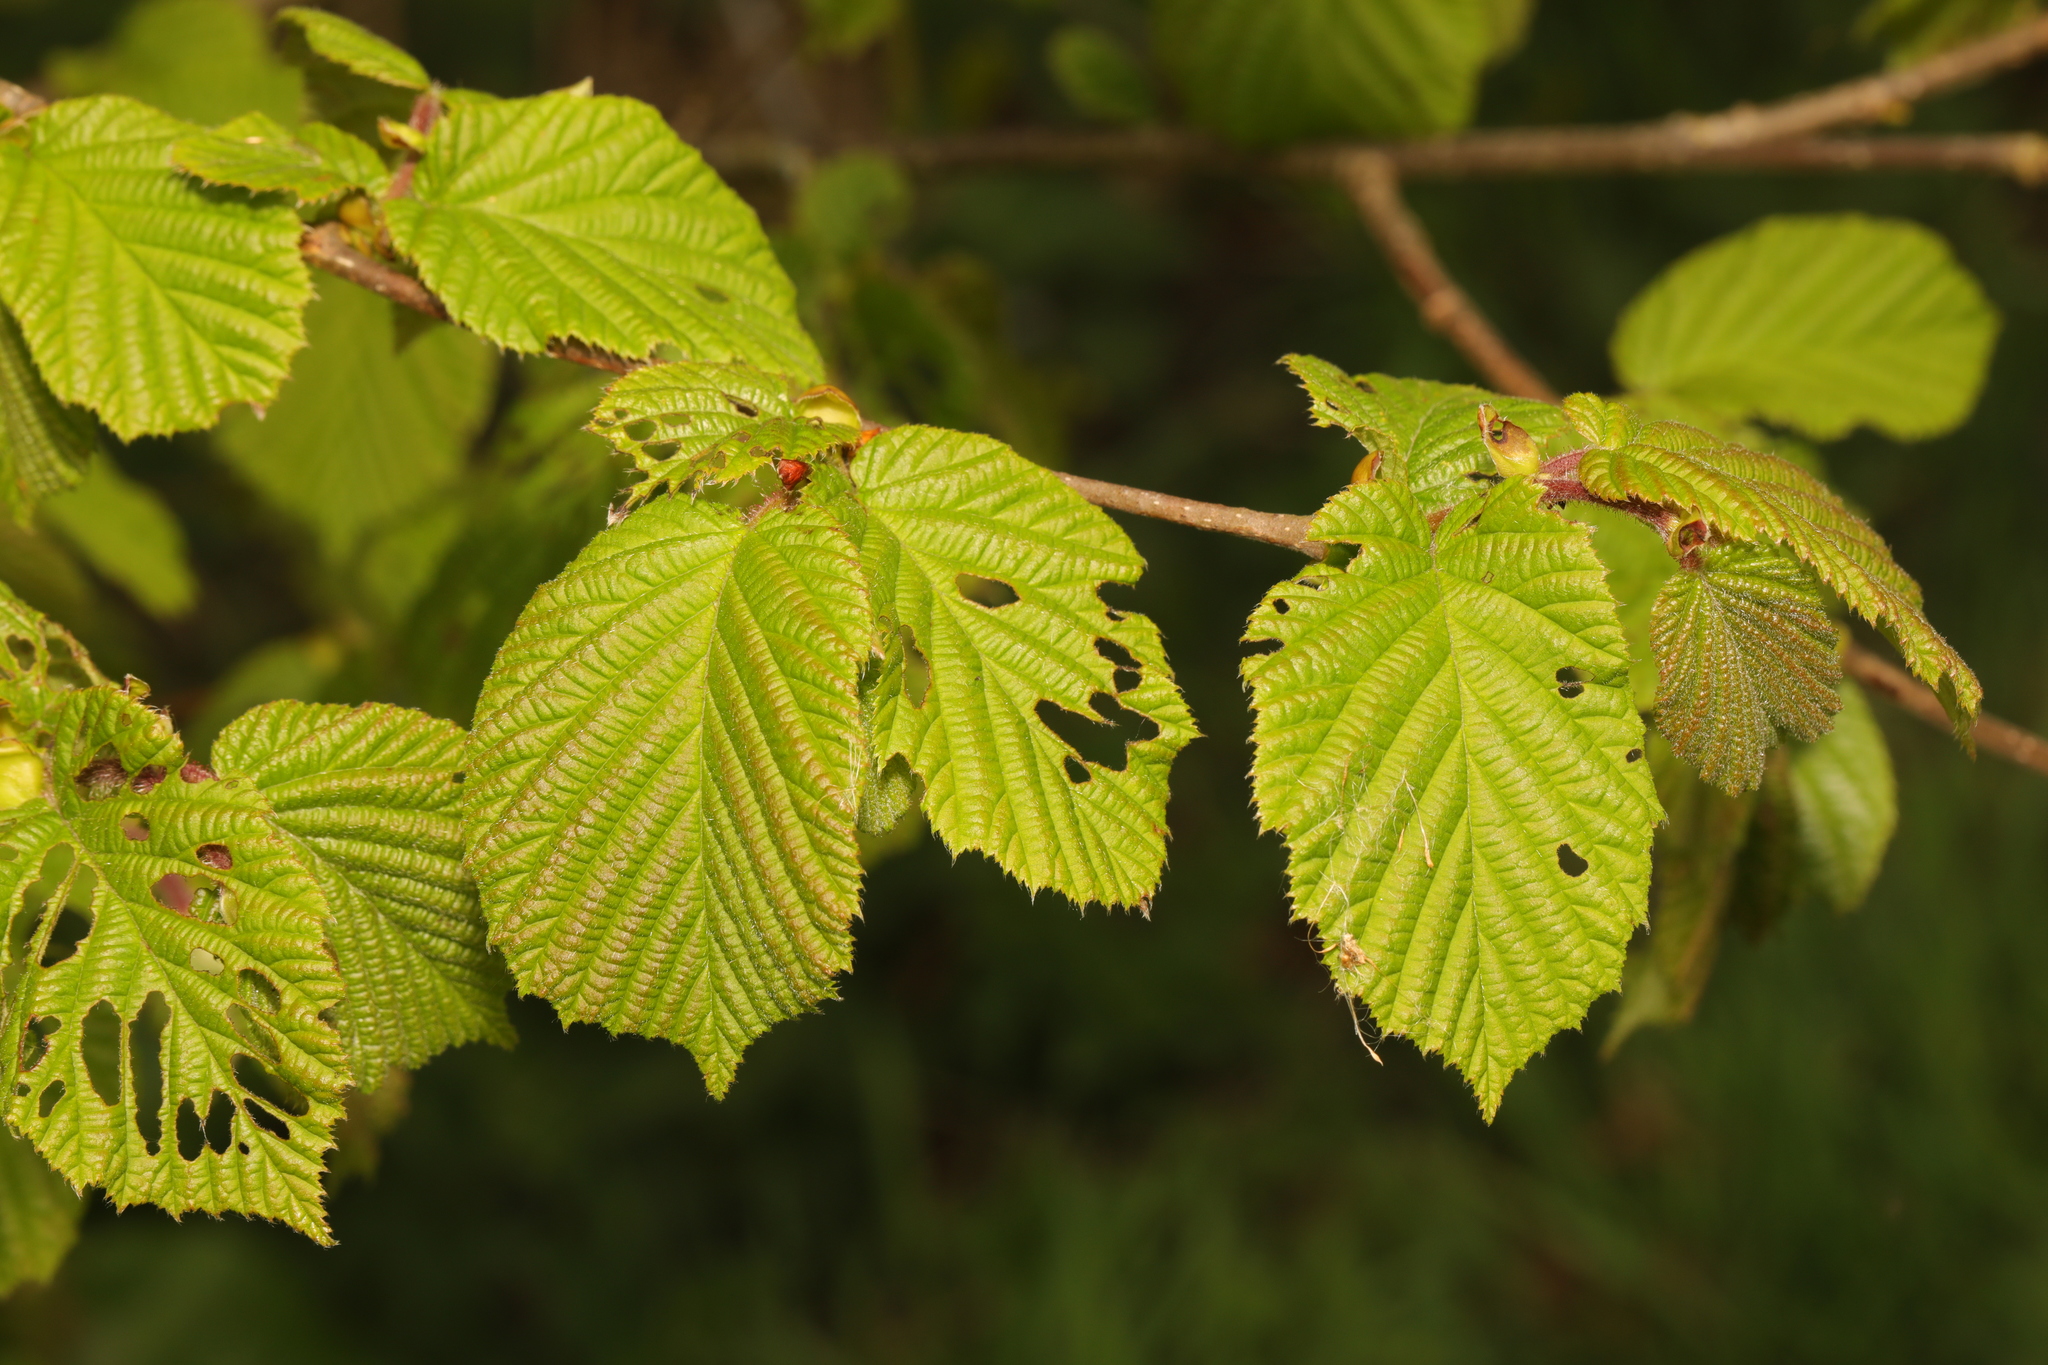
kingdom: Plantae
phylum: Tracheophyta
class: Magnoliopsida
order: Fagales
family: Betulaceae
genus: Corylus
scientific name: Corylus avellana
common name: European hazel
